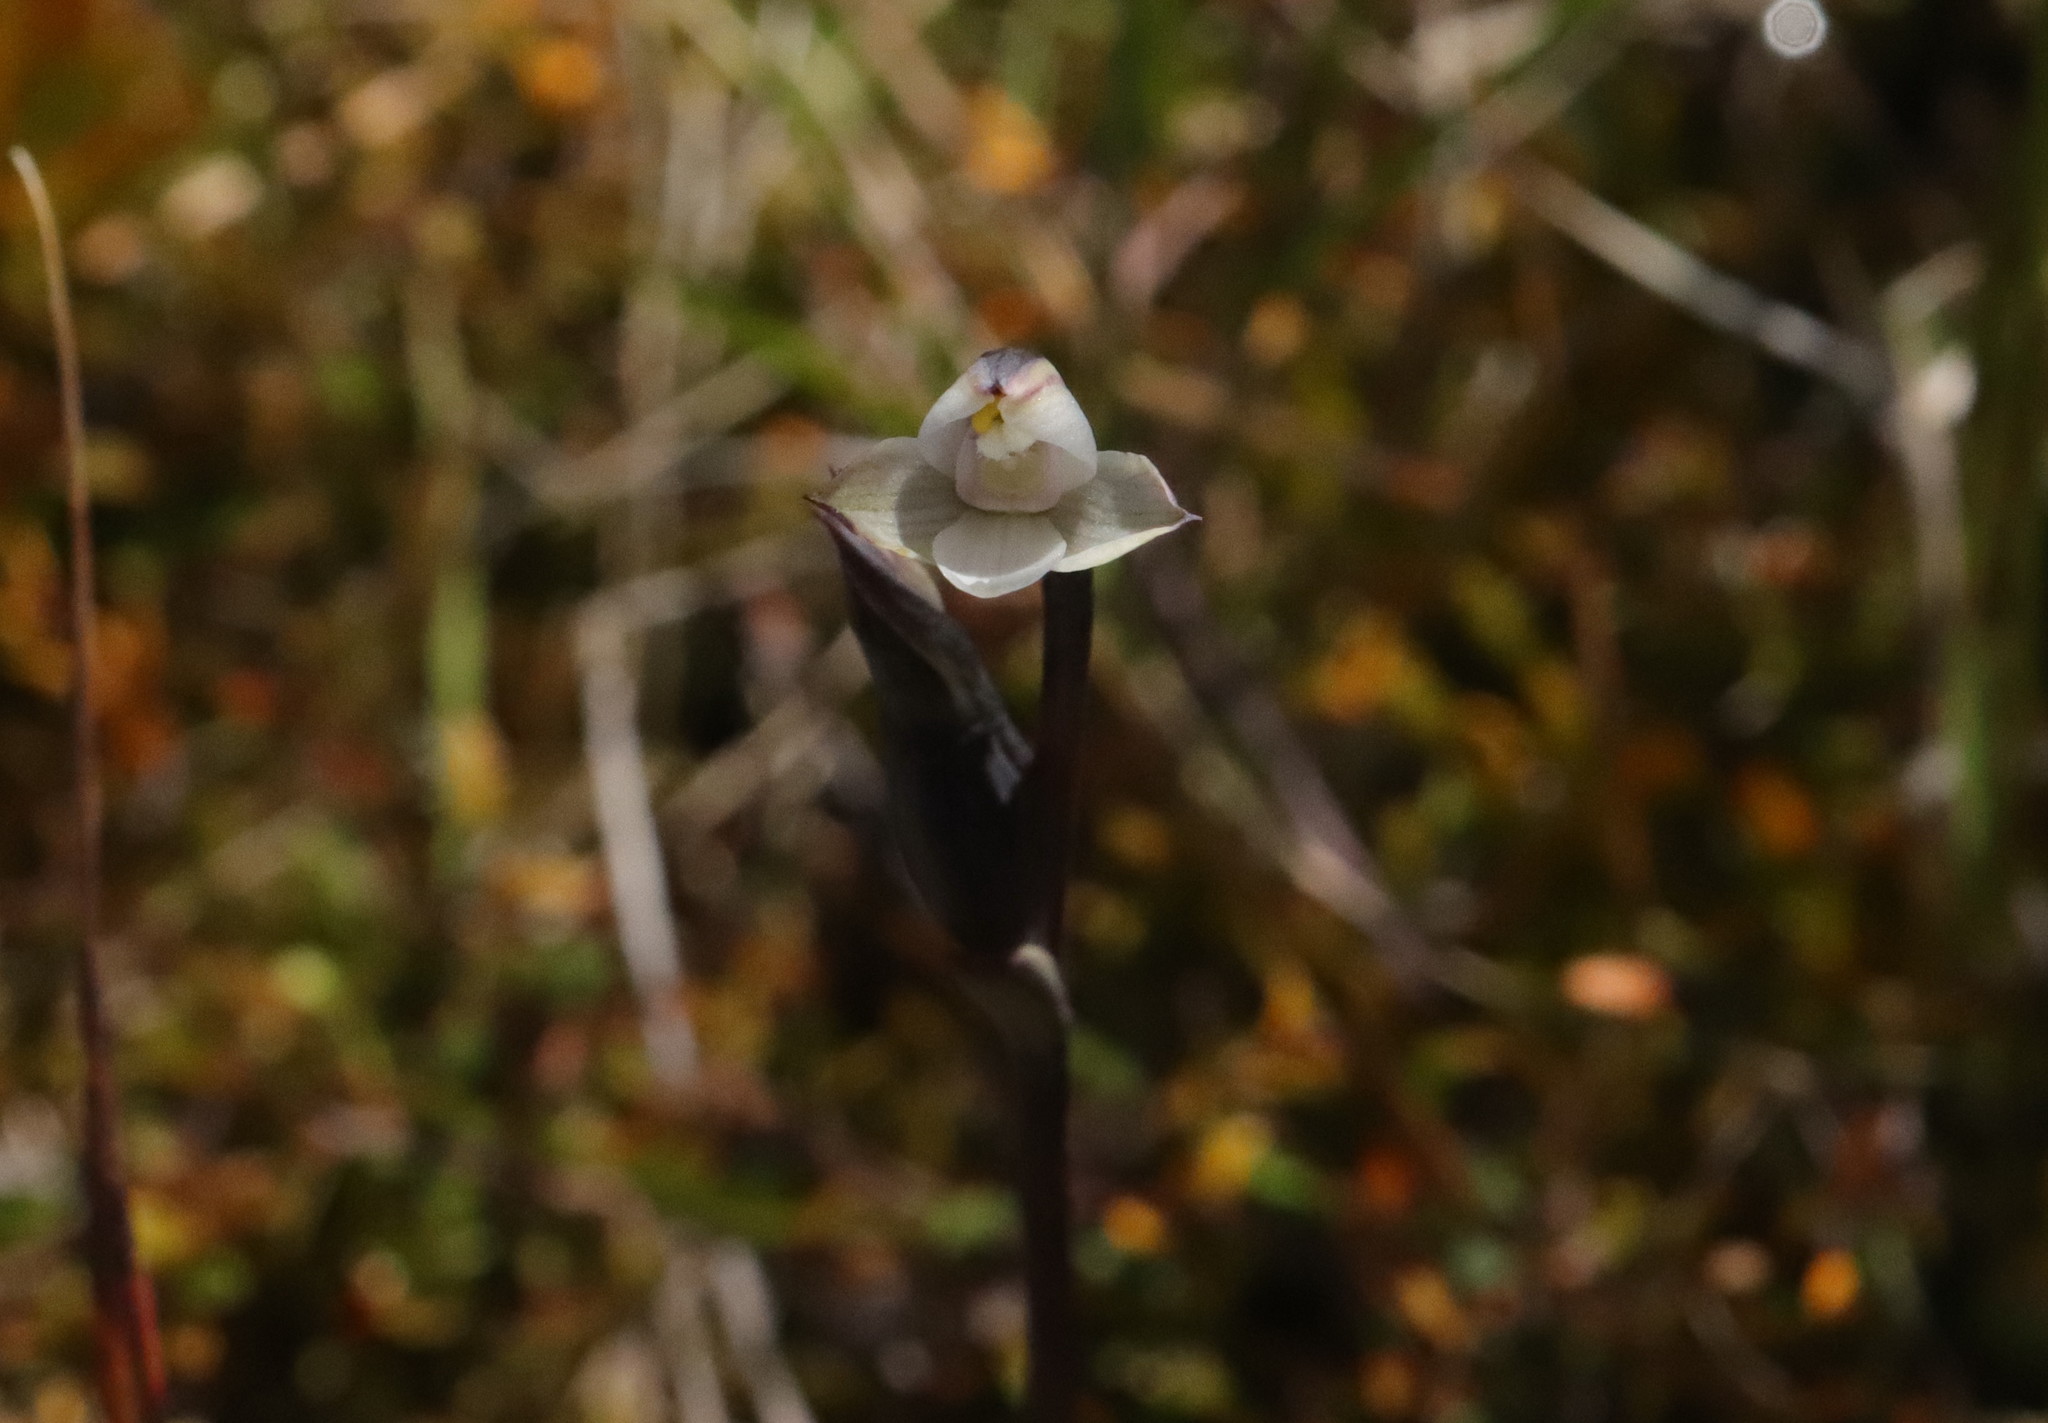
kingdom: Plantae
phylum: Tracheophyta
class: Liliopsida
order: Asparagales
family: Orchidaceae
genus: Thelymitra
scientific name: Thelymitra longifolia
